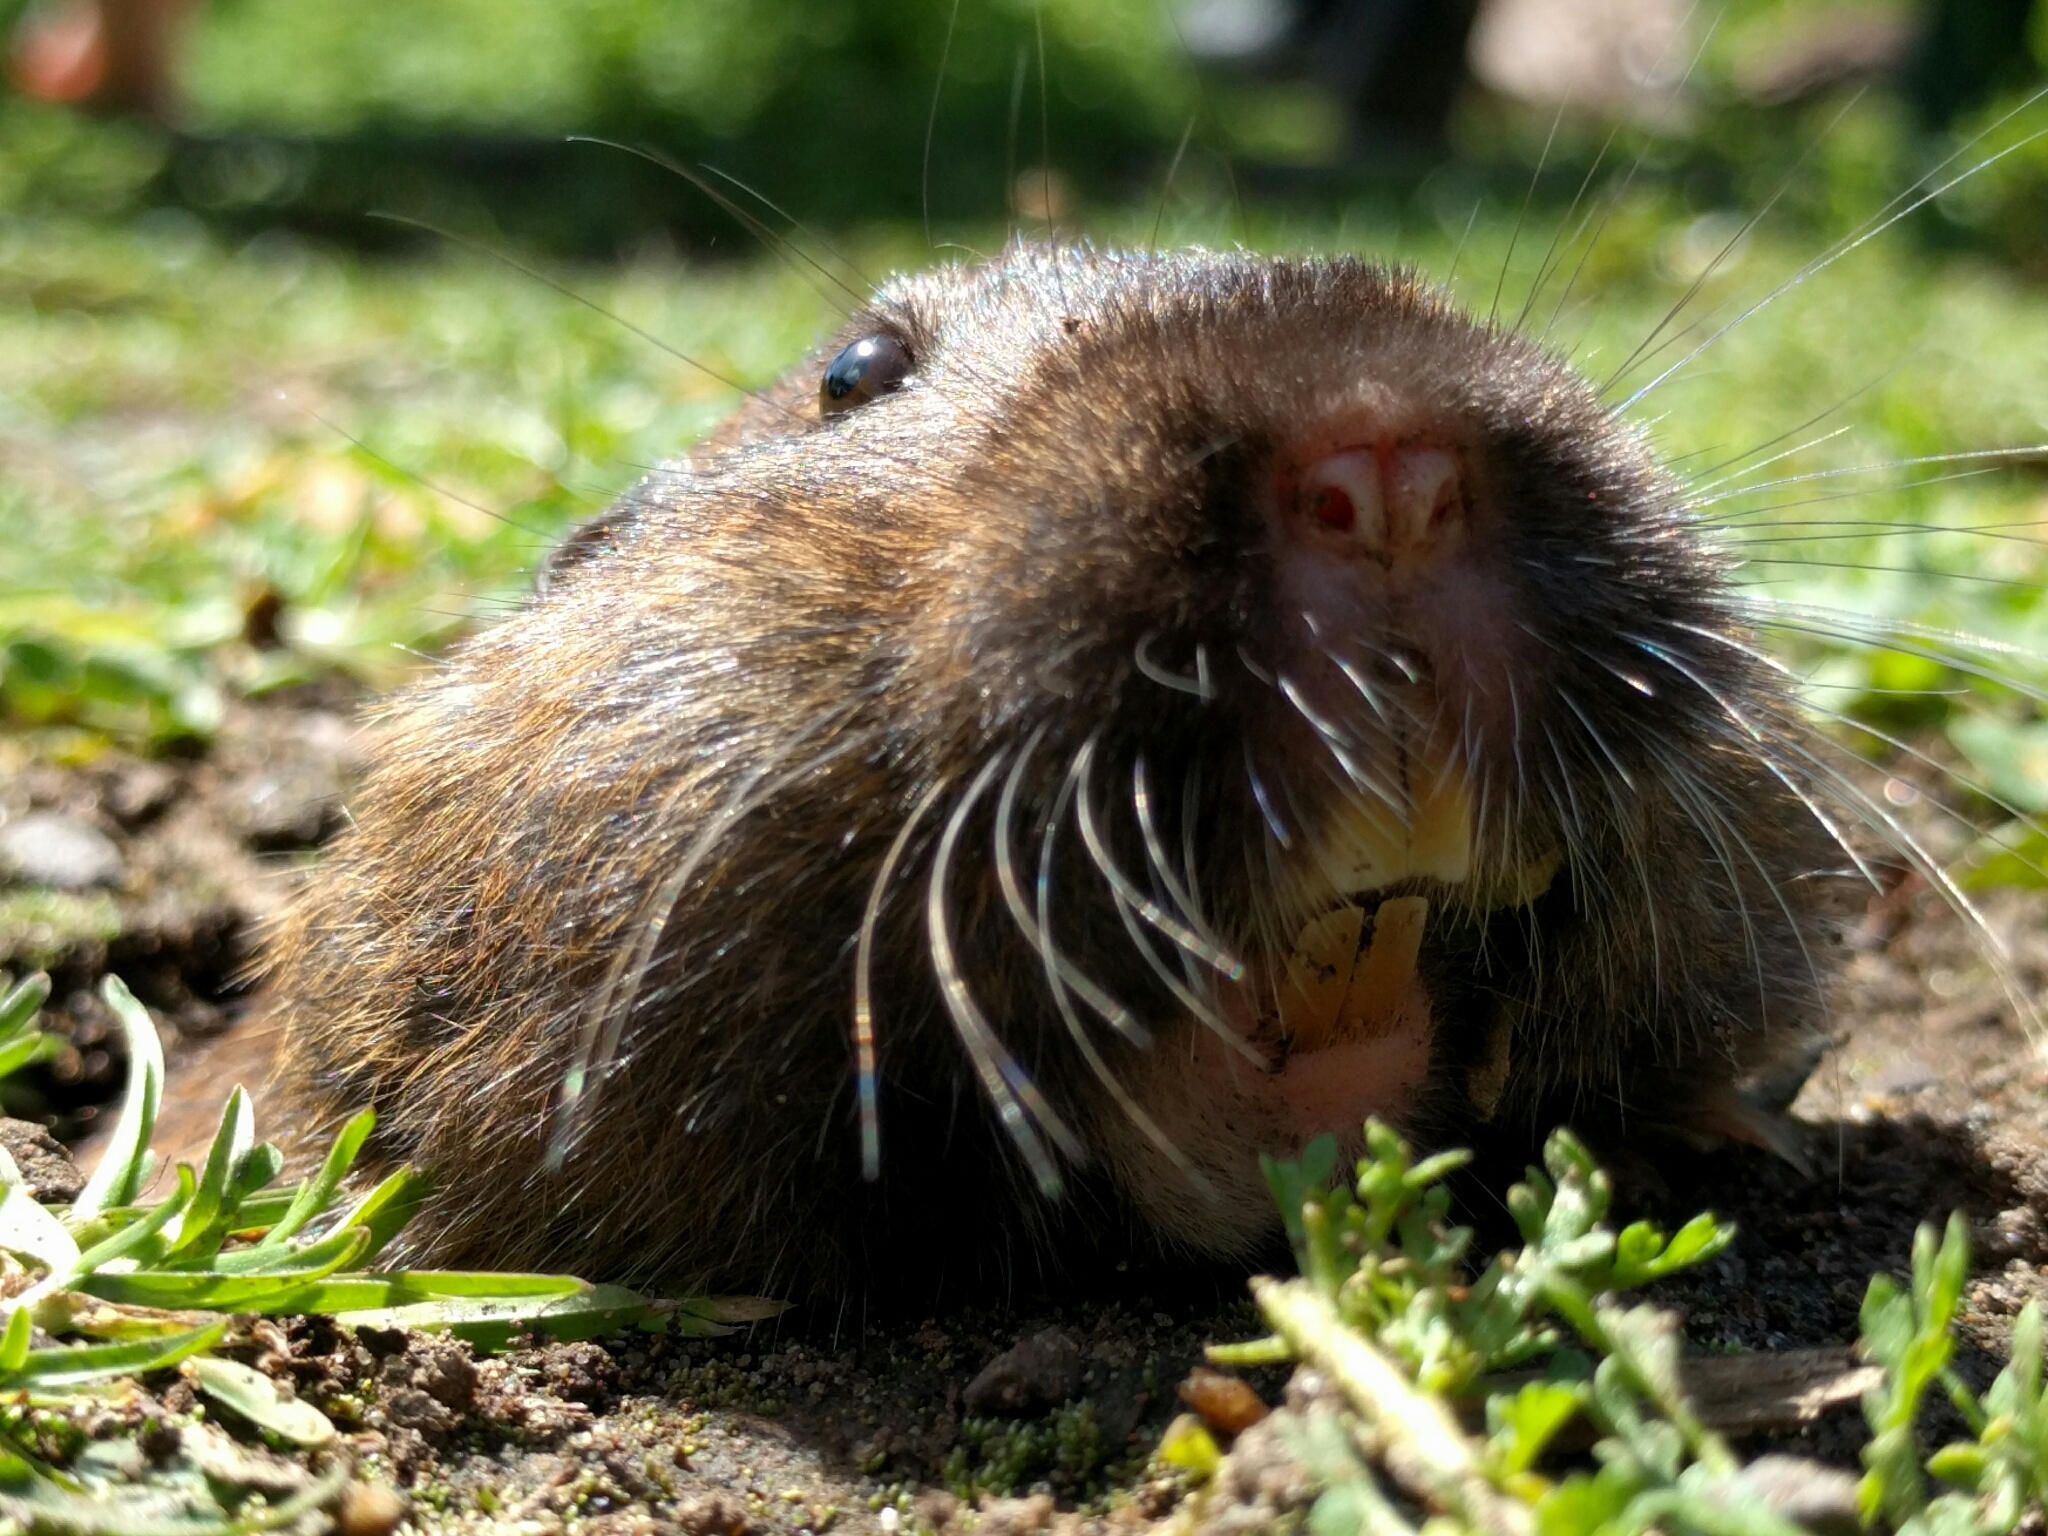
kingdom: Animalia
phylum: Chordata
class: Mammalia
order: Rodentia
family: Geomyidae
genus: Thomomys
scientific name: Thomomys bottae
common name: Botta's pocket gopher
